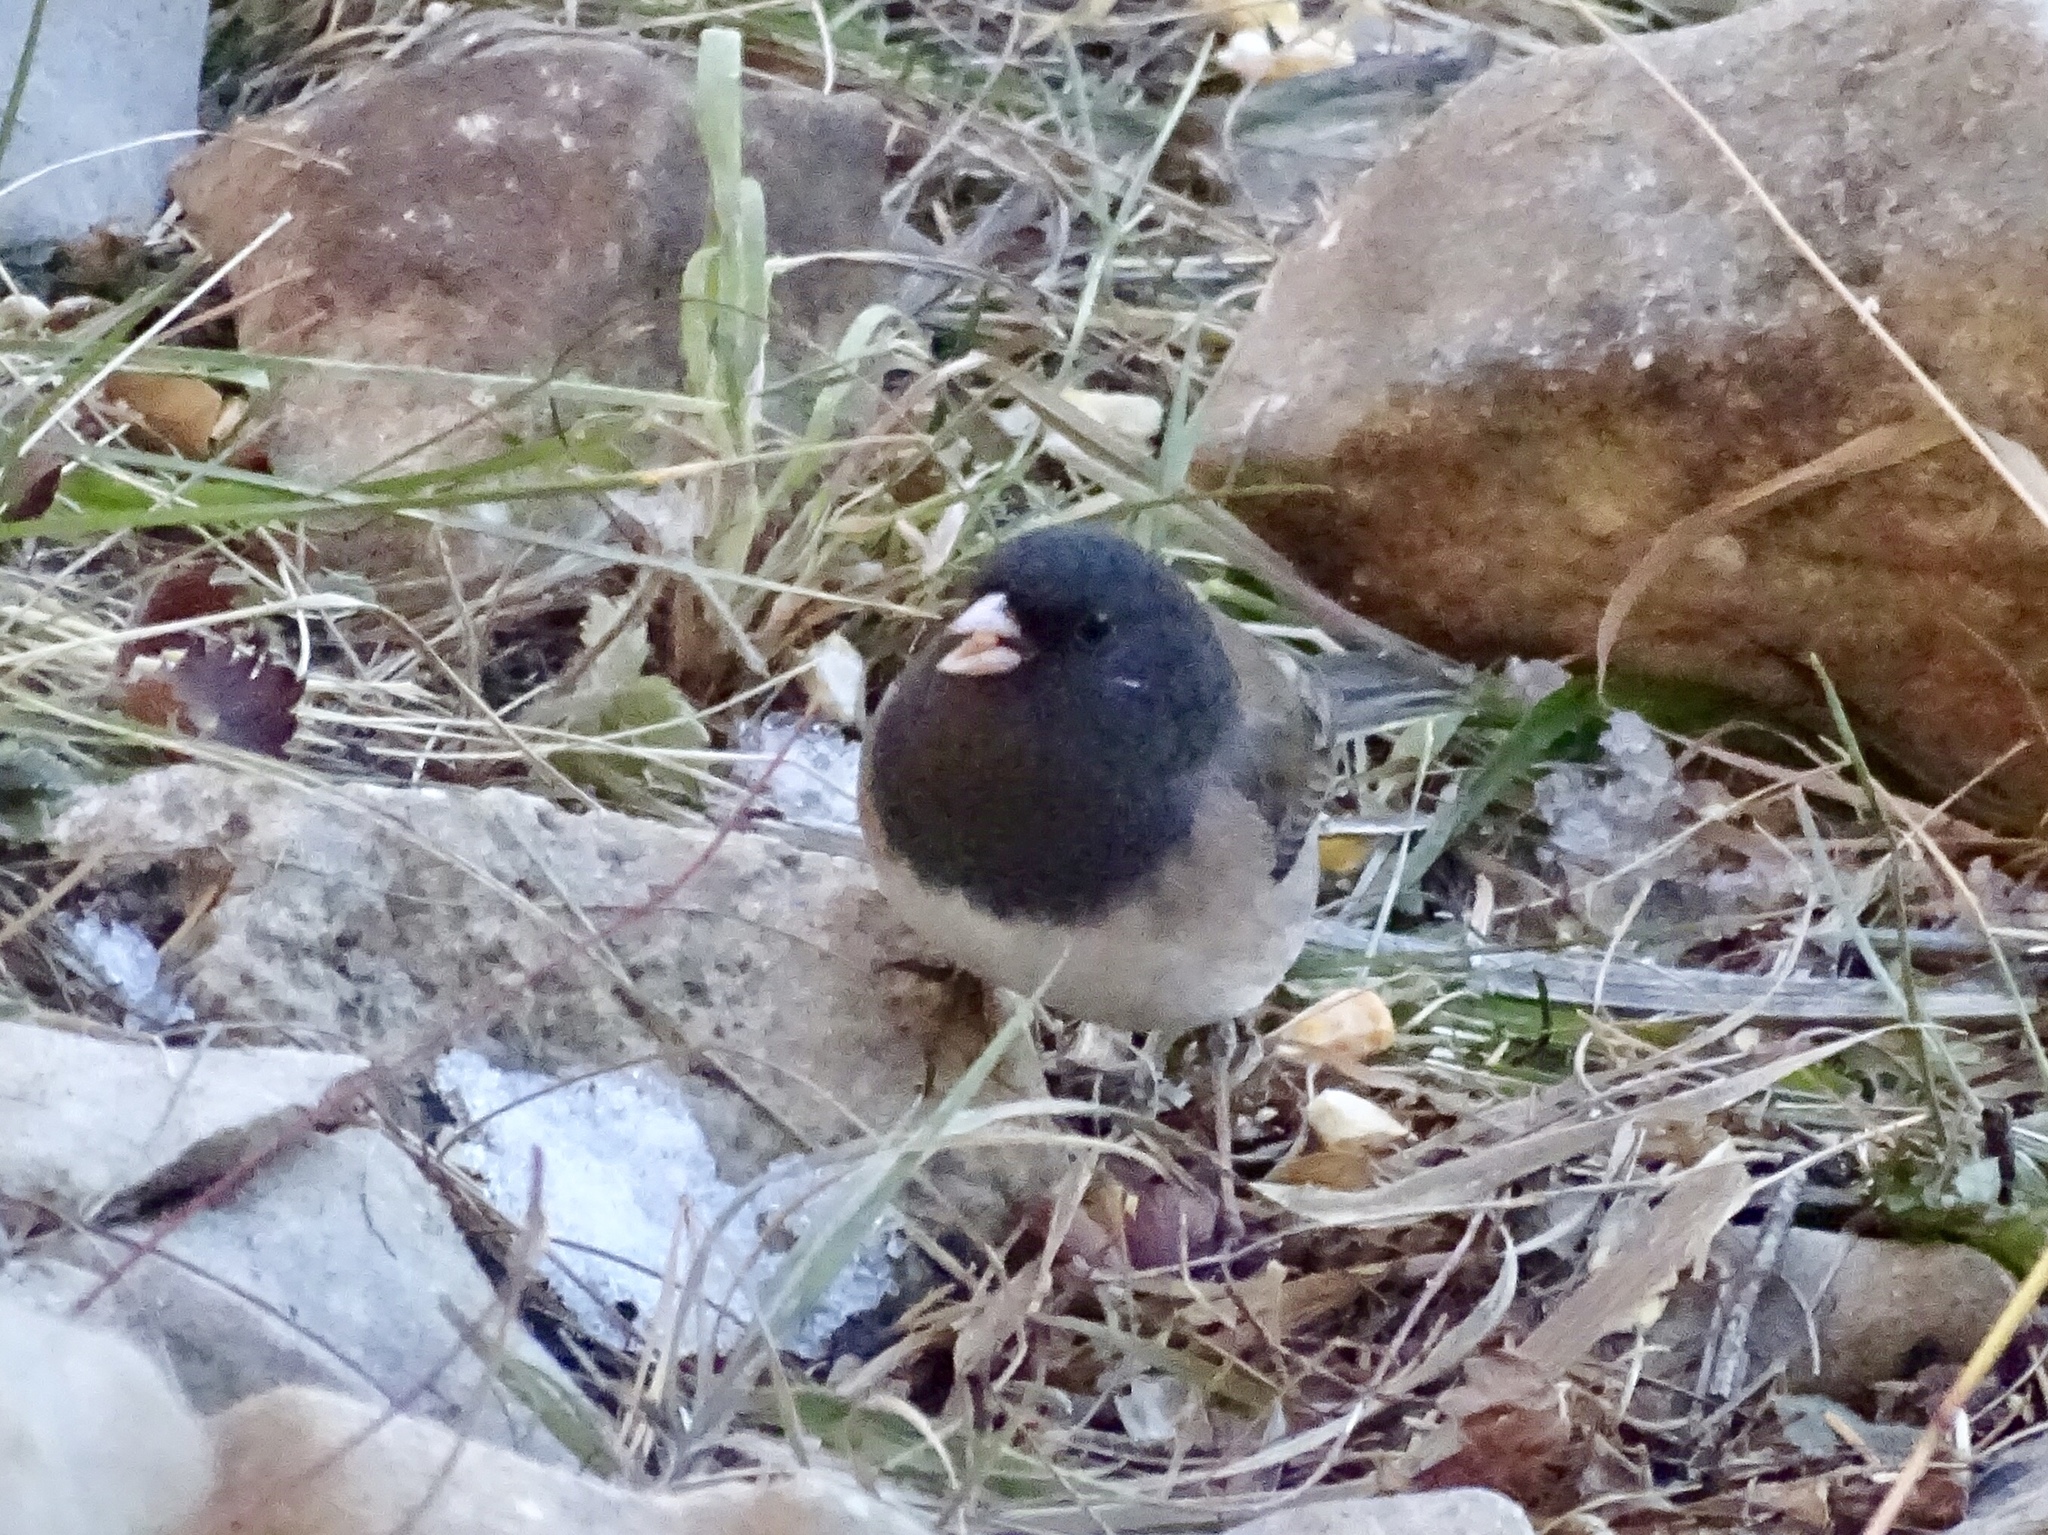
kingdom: Animalia
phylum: Chordata
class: Aves
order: Passeriformes
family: Passerellidae
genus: Junco
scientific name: Junco hyemalis
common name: Dark-eyed junco
